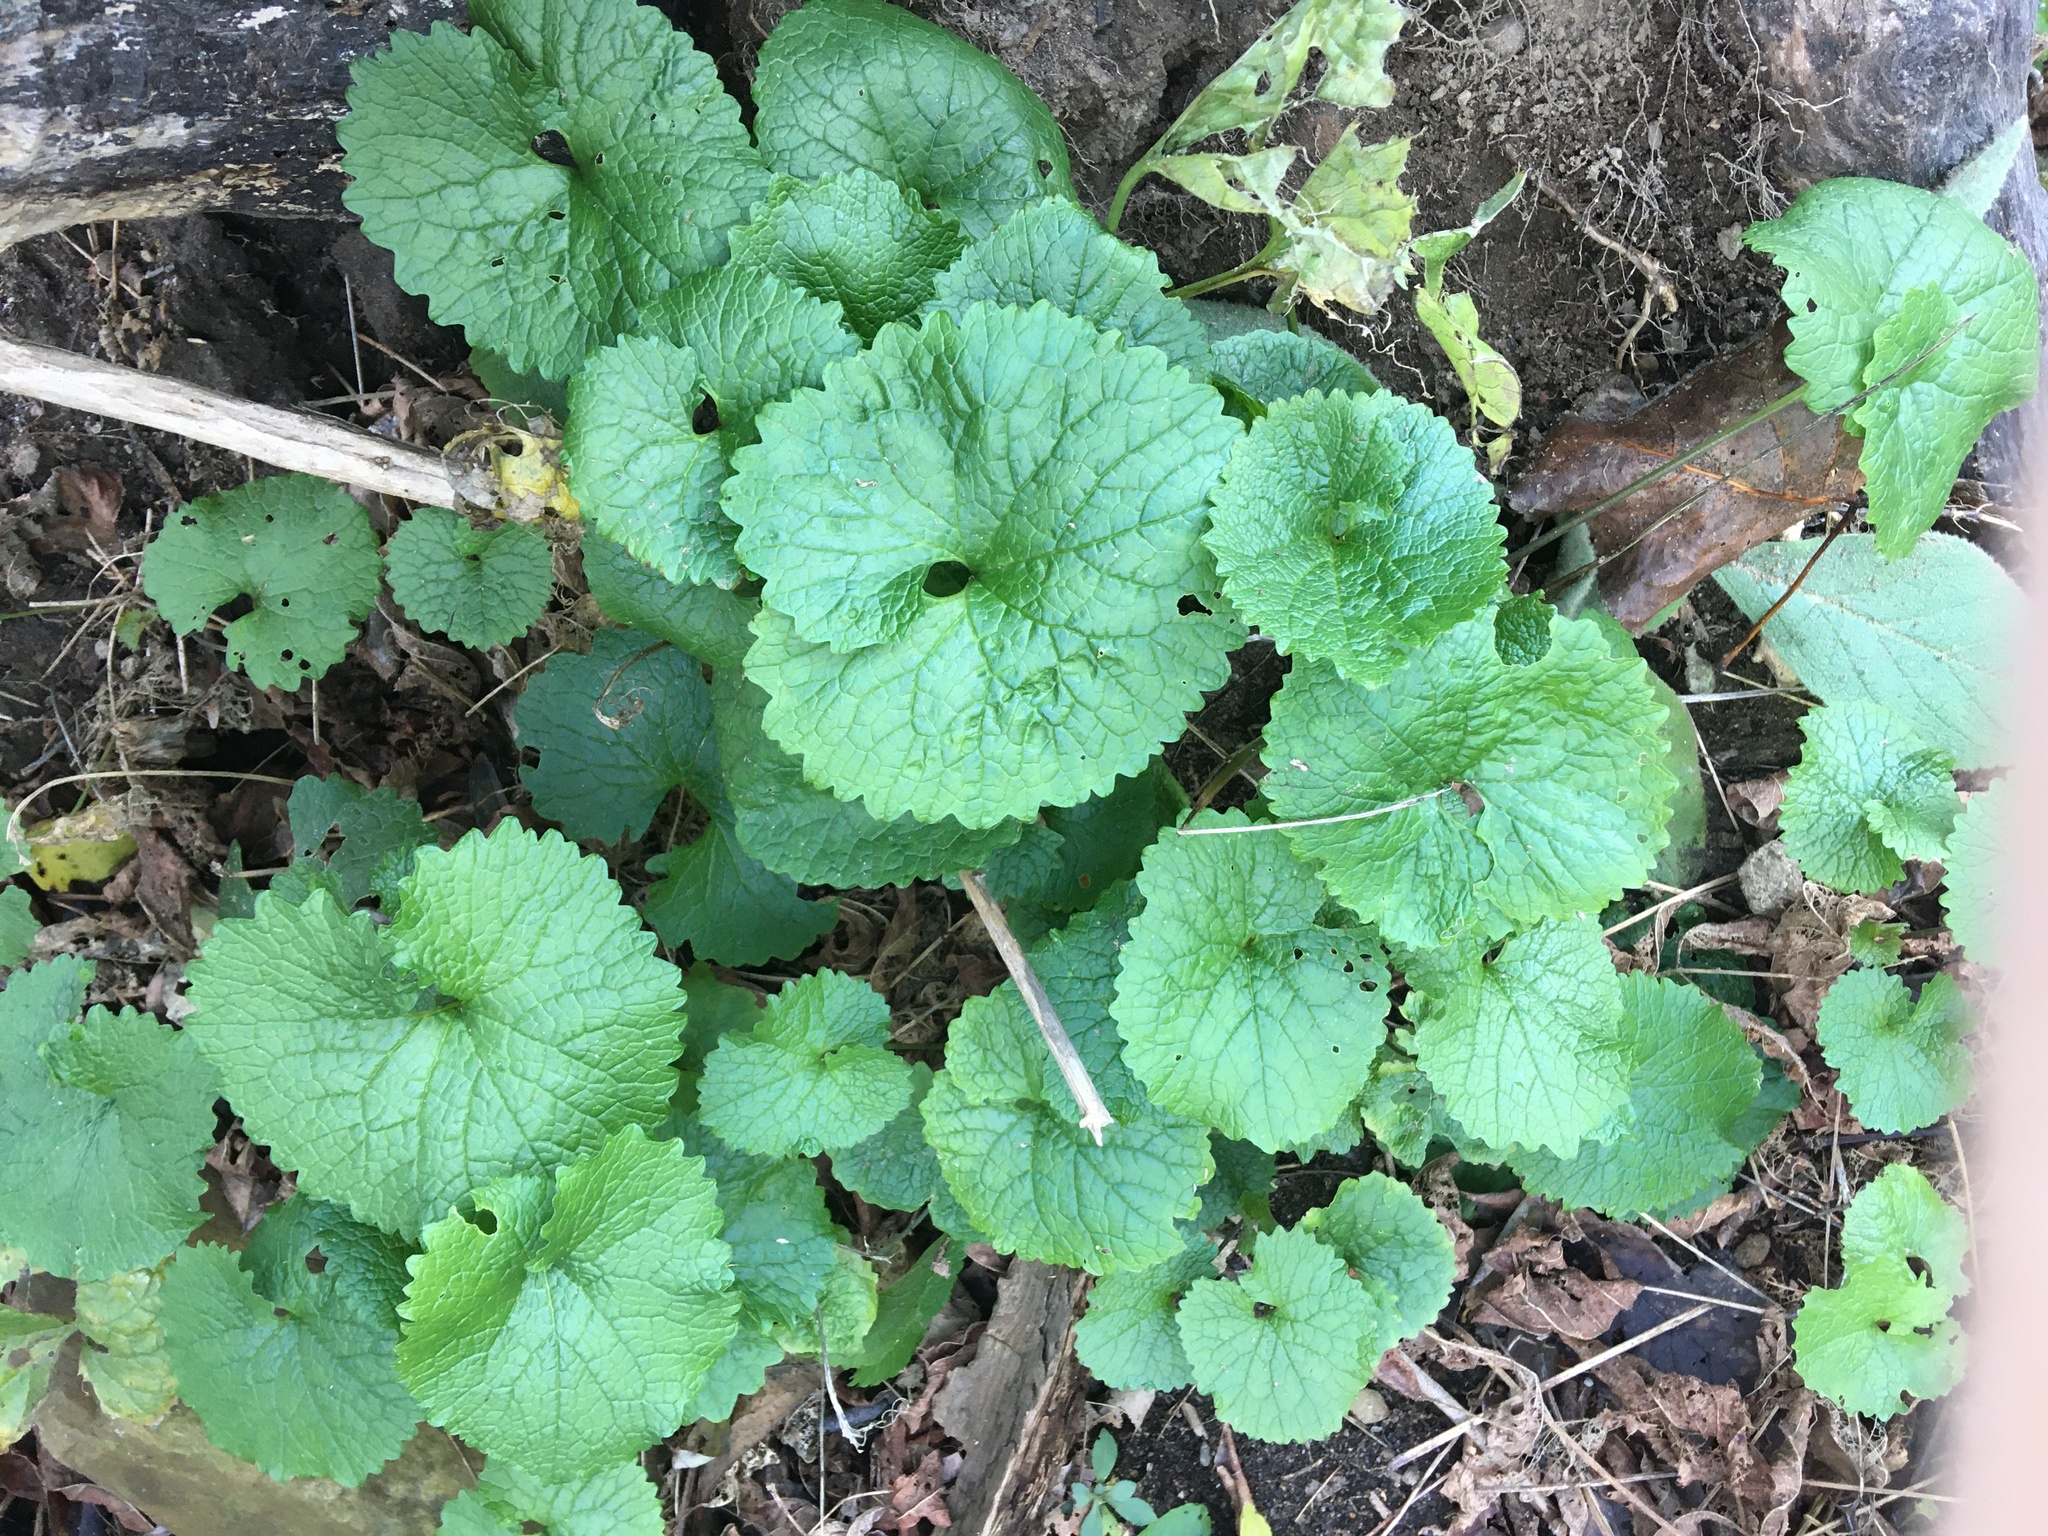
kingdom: Plantae
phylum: Tracheophyta
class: Magnoliopsida
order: Brassicales
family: Brassicaceae
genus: Alliaria
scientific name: Alliaria petiolata
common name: Garlic mustard
